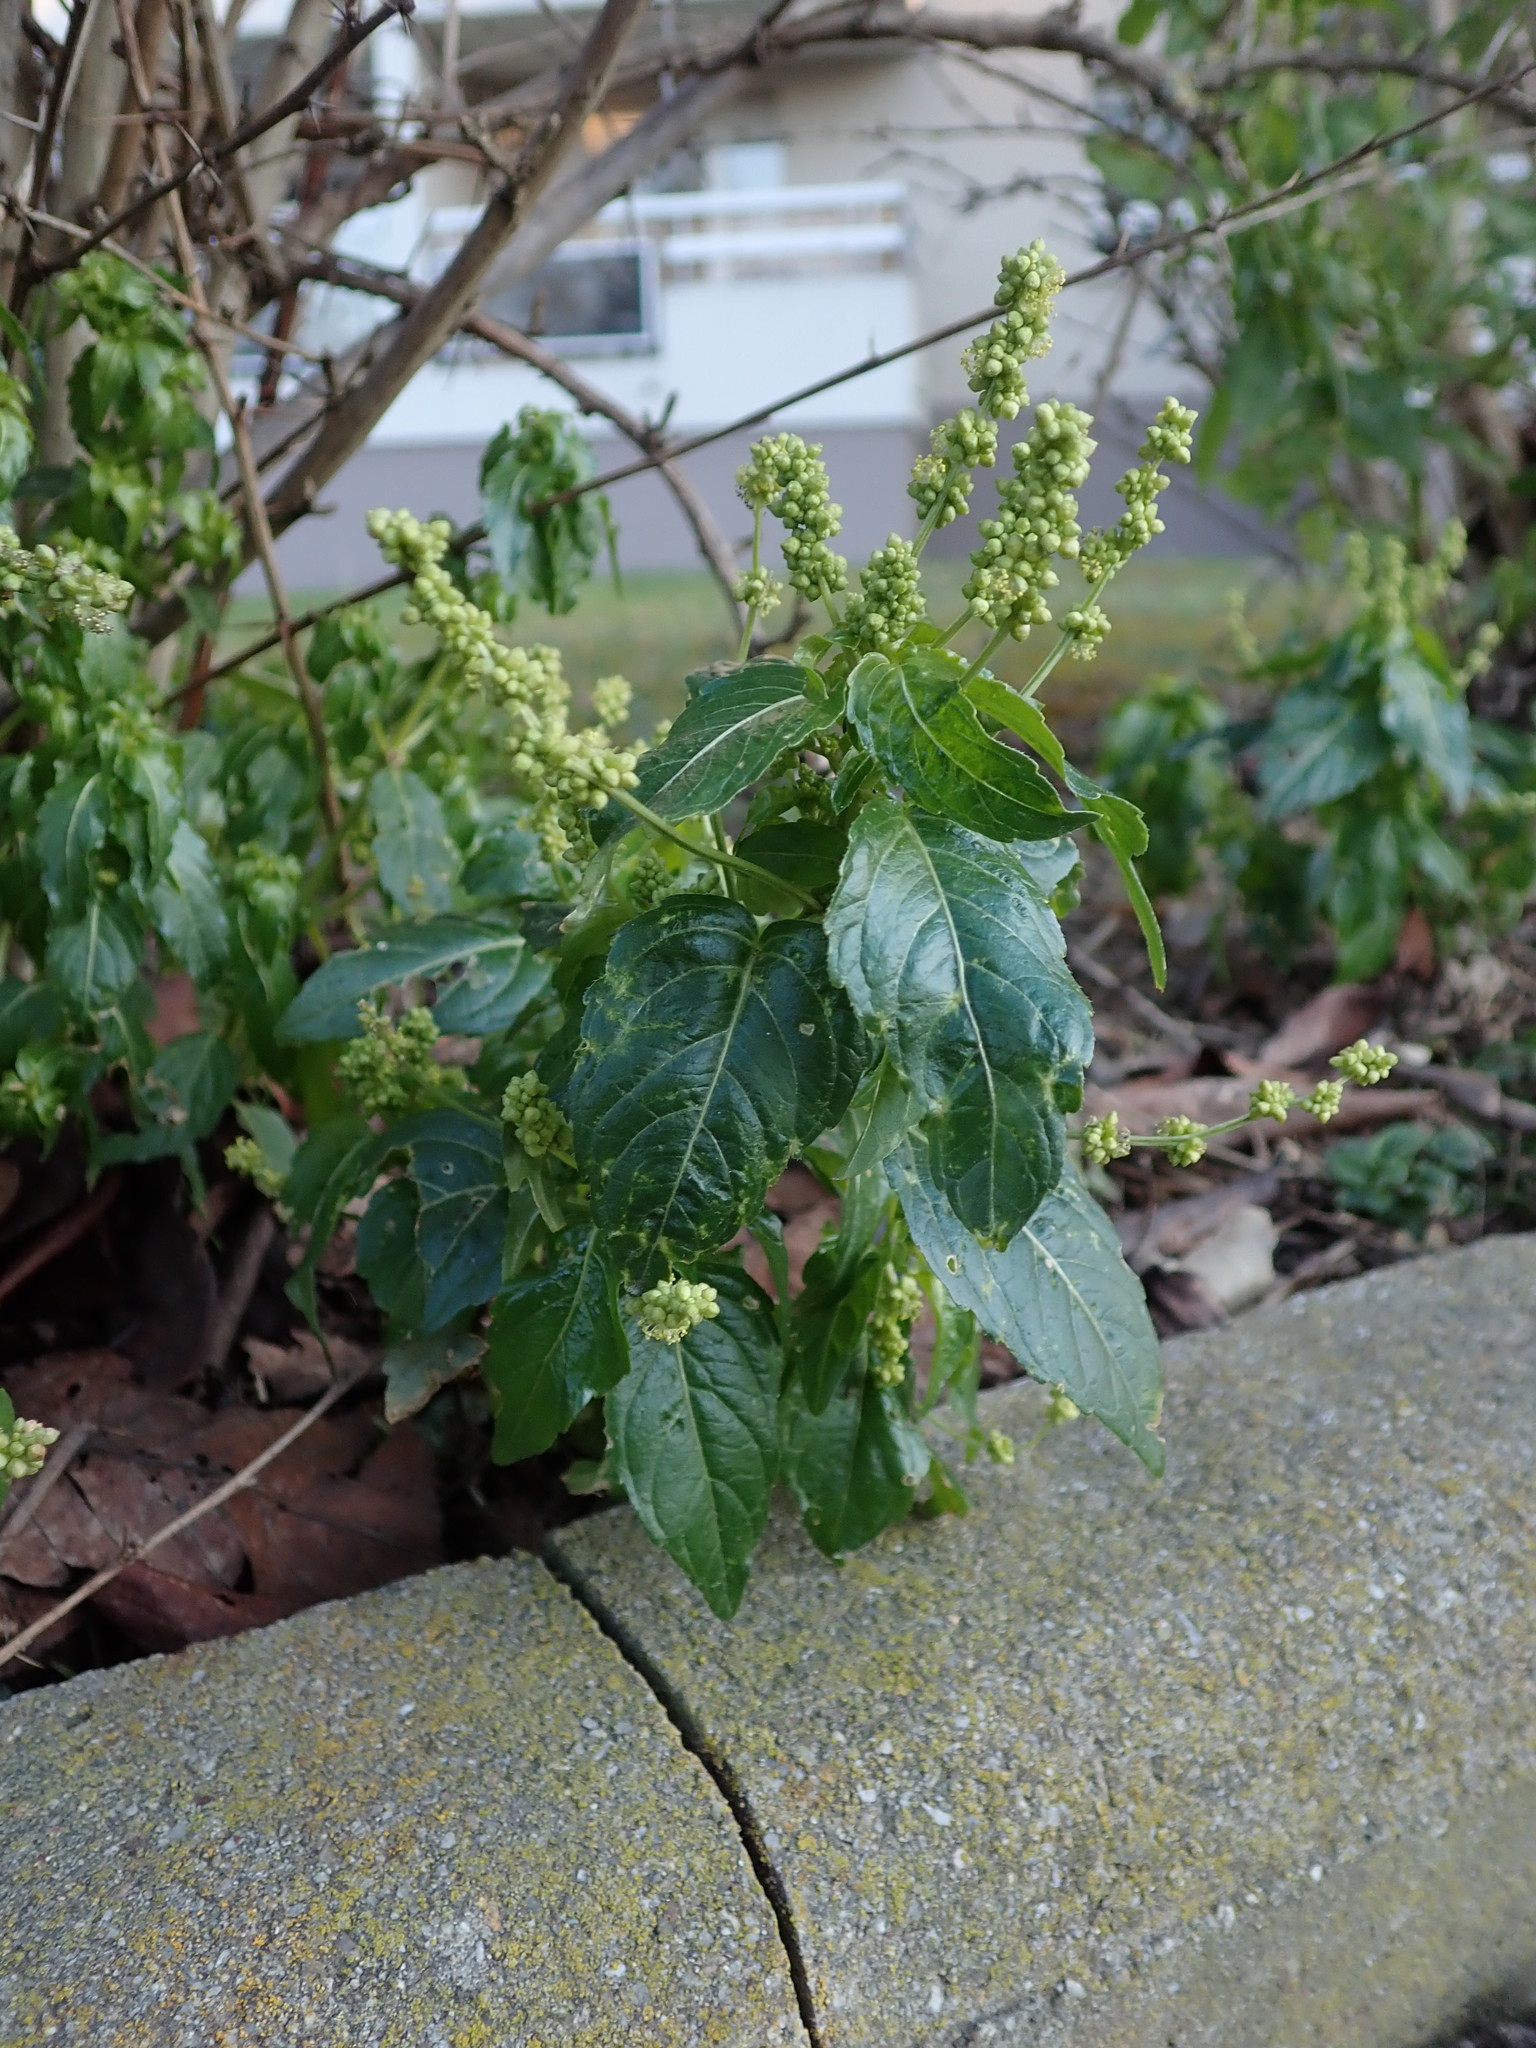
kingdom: Plantae
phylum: Tracheophyta
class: Magnoliopsida
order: Malpighiales
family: Euphorbiaceae
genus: Mercurialis
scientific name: Mercurialis annua
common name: Annual mercury
